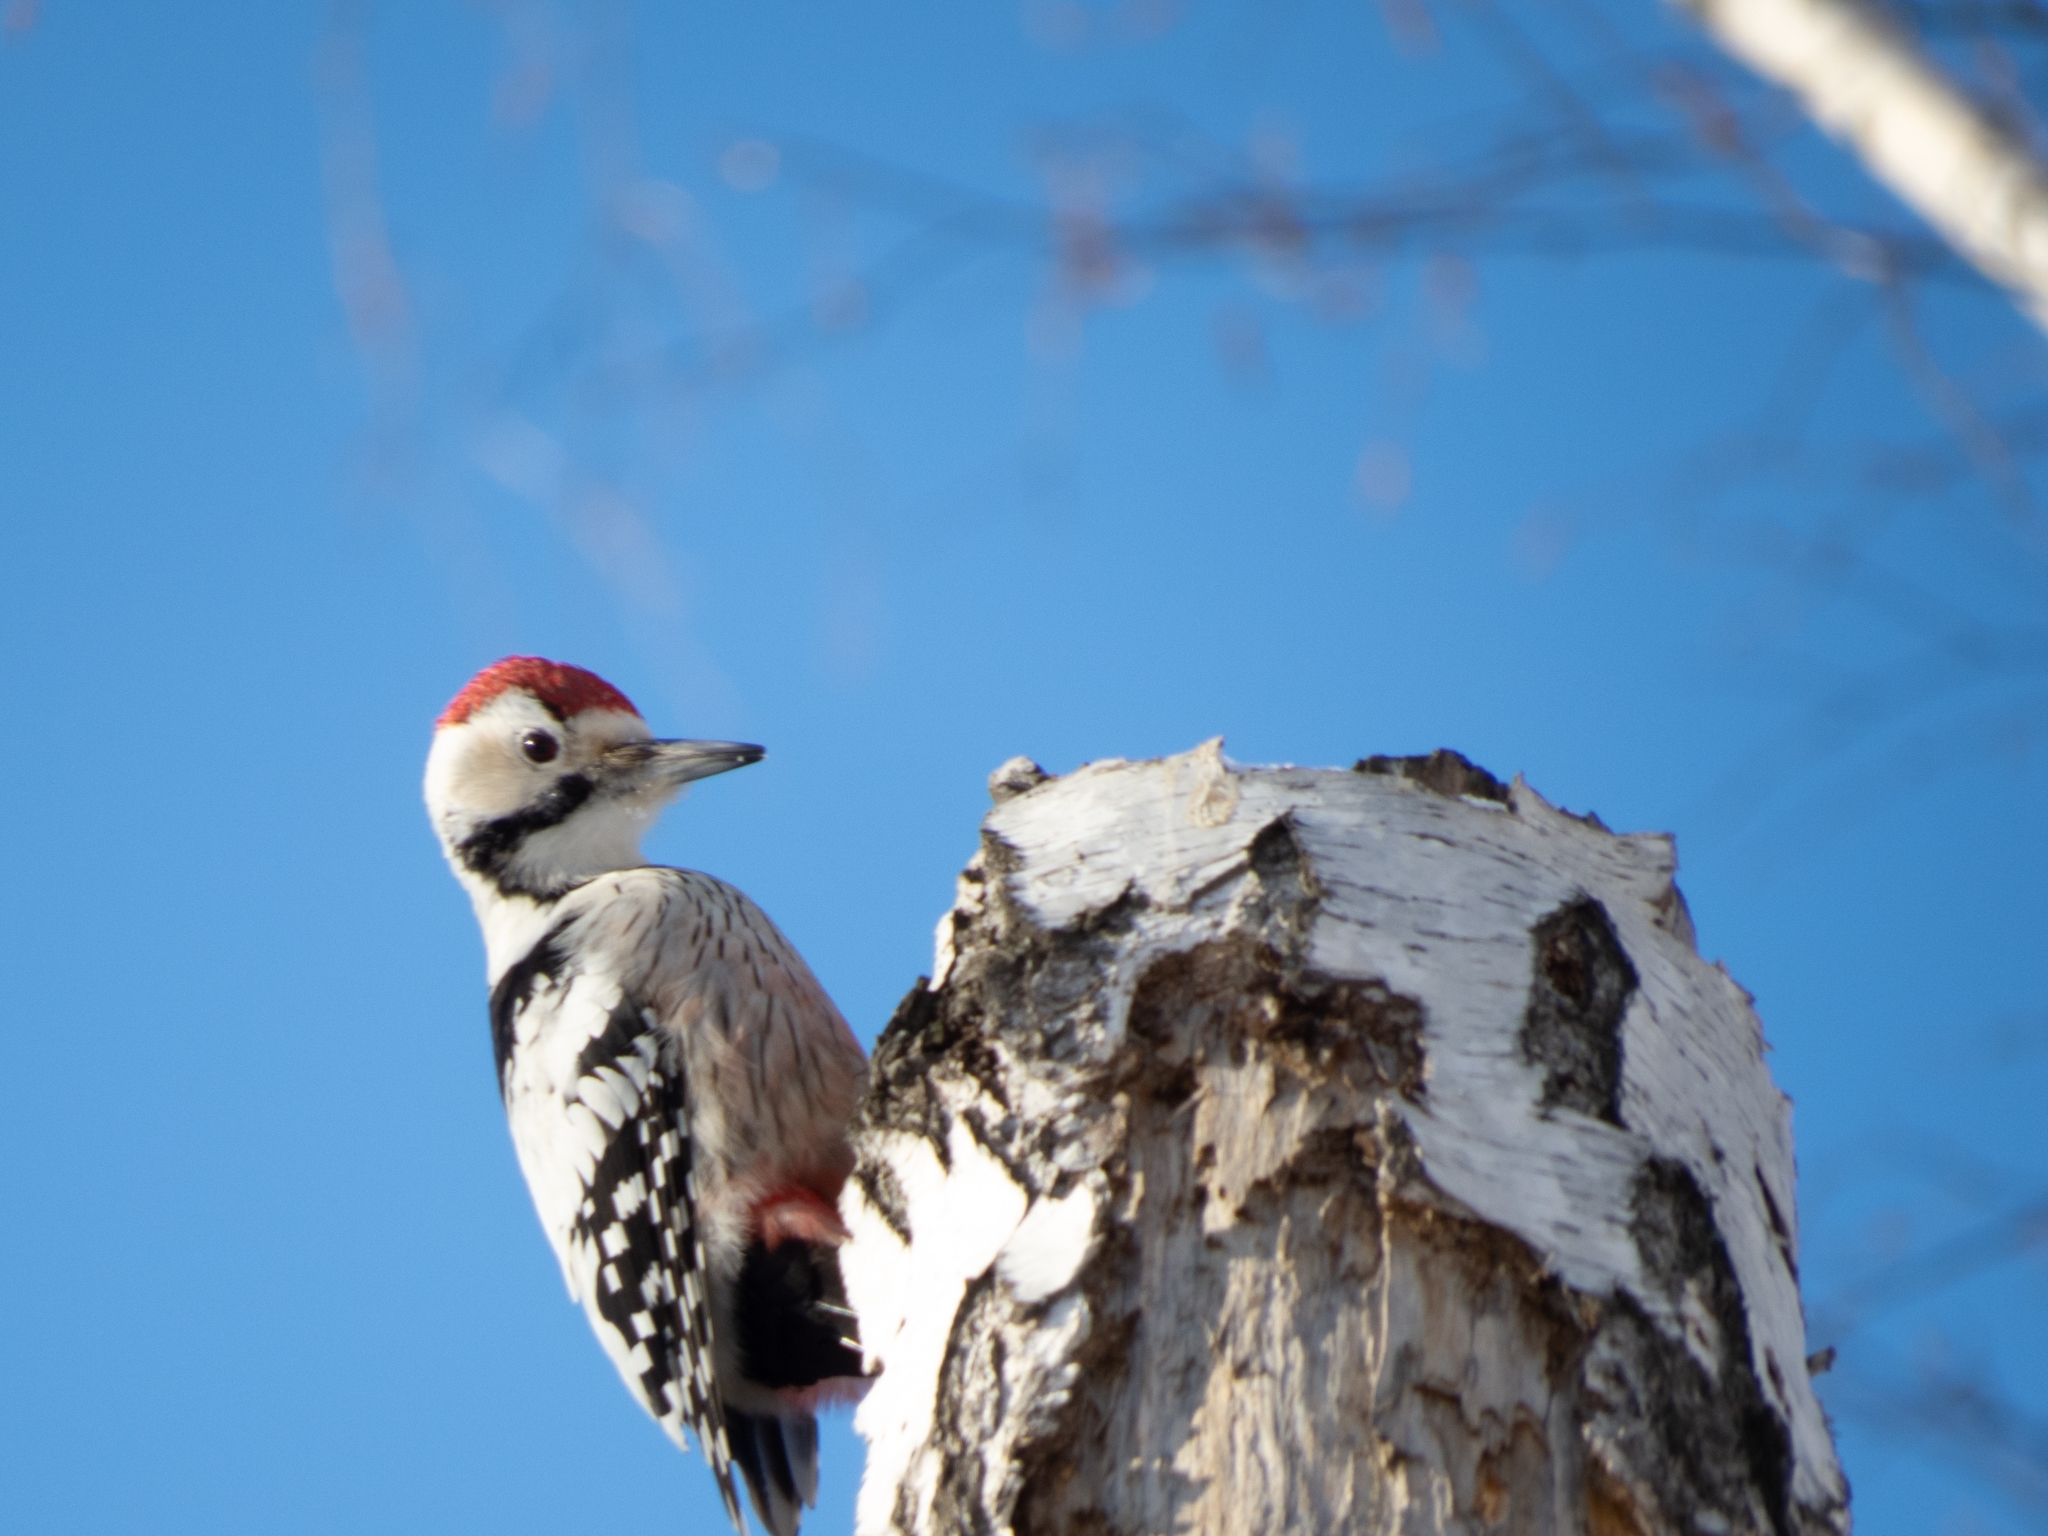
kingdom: Animalia
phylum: Chordata
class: Aves
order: Piciformes
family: Picidae
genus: Dendrocopos
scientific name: Dendrocopos leucotos
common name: White-backed woodpecker
